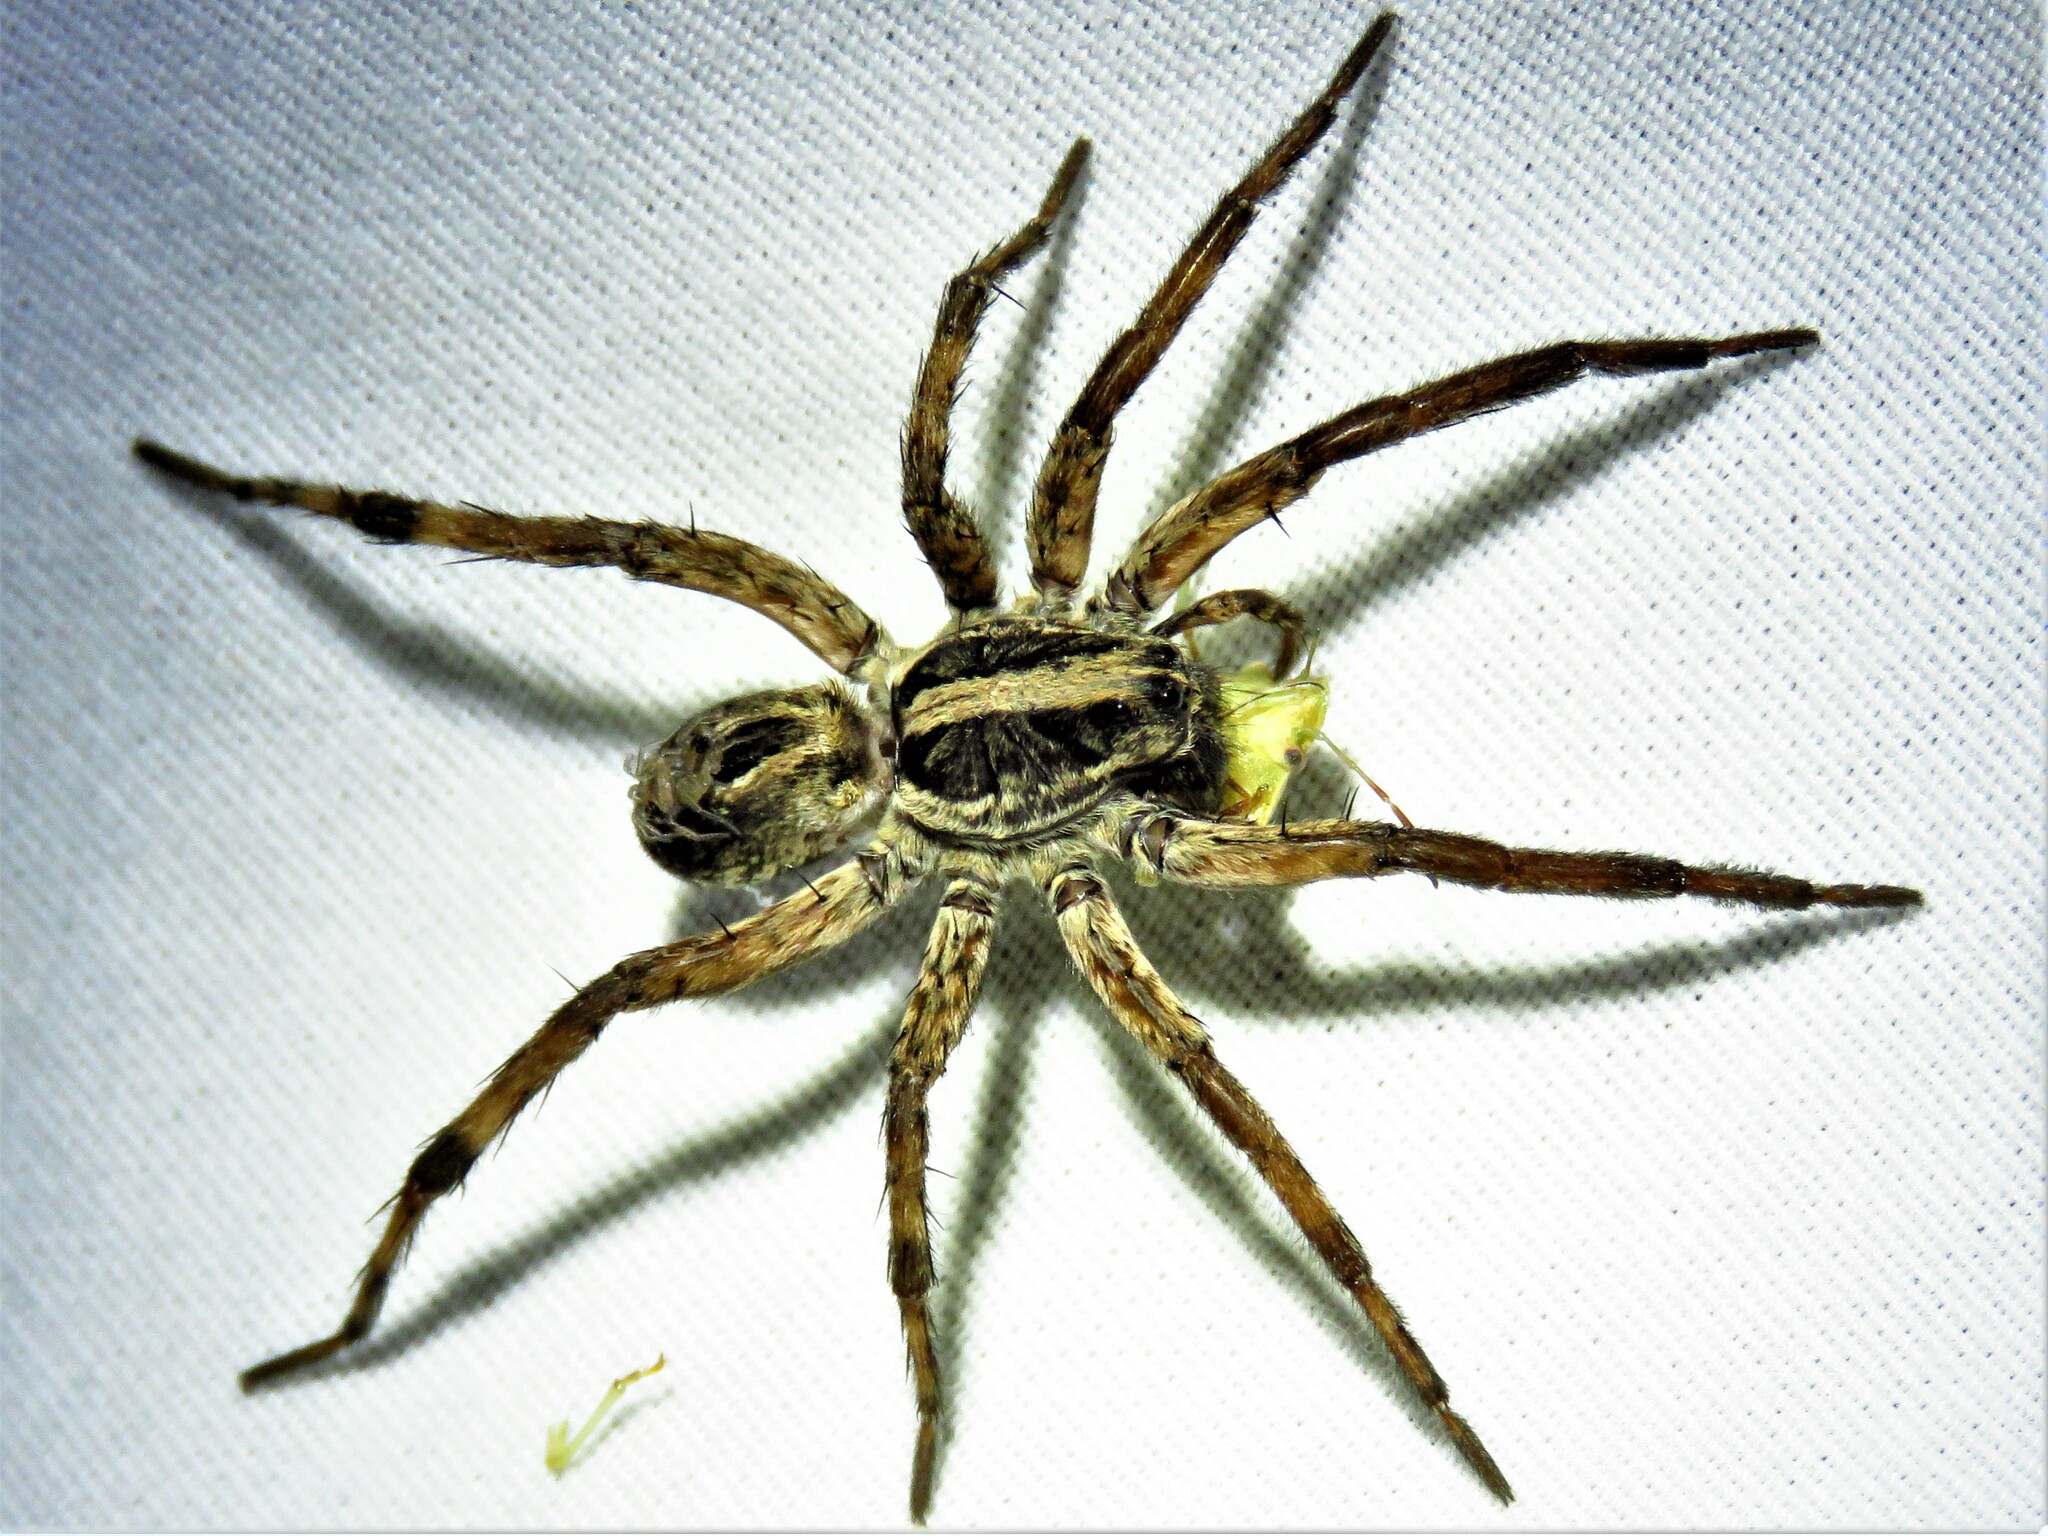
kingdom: Animalia
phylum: Arthropoda
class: Arachnida
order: Araneae
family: Lycosidae
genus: Schizocosa
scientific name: Schizocosa avida
